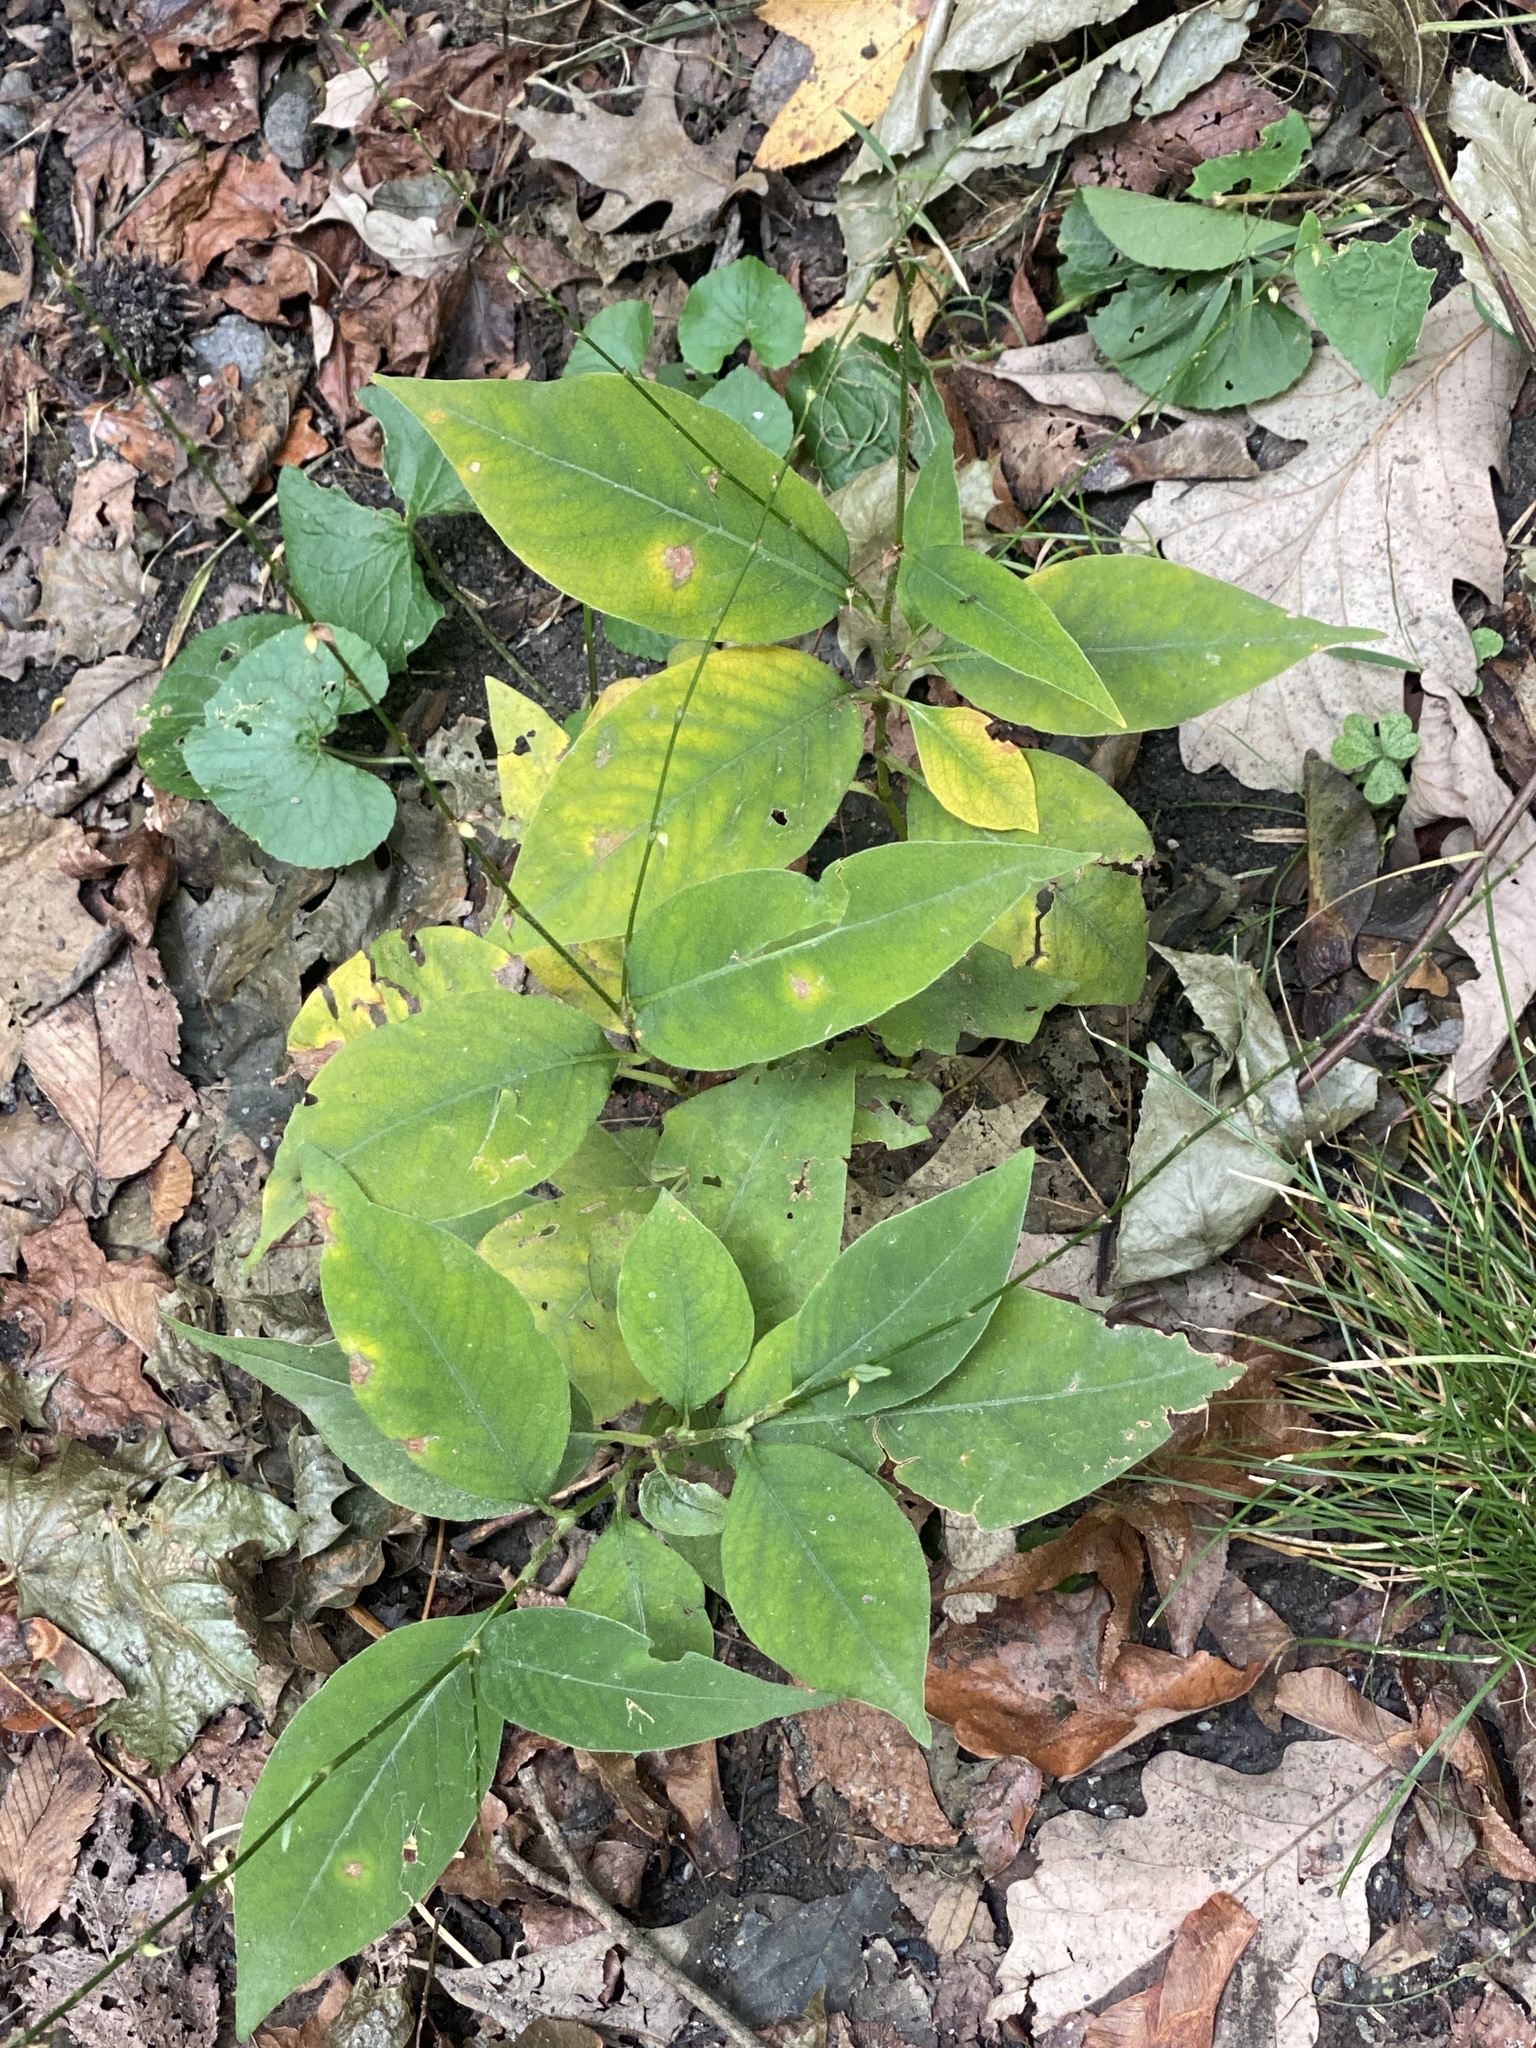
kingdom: Plantae
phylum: Tracheophyta
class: Magnoliopsida
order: Caryophyllales
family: Polygonaceae
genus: Persicaria
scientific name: Persicaria virginiana
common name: Jumpseed
